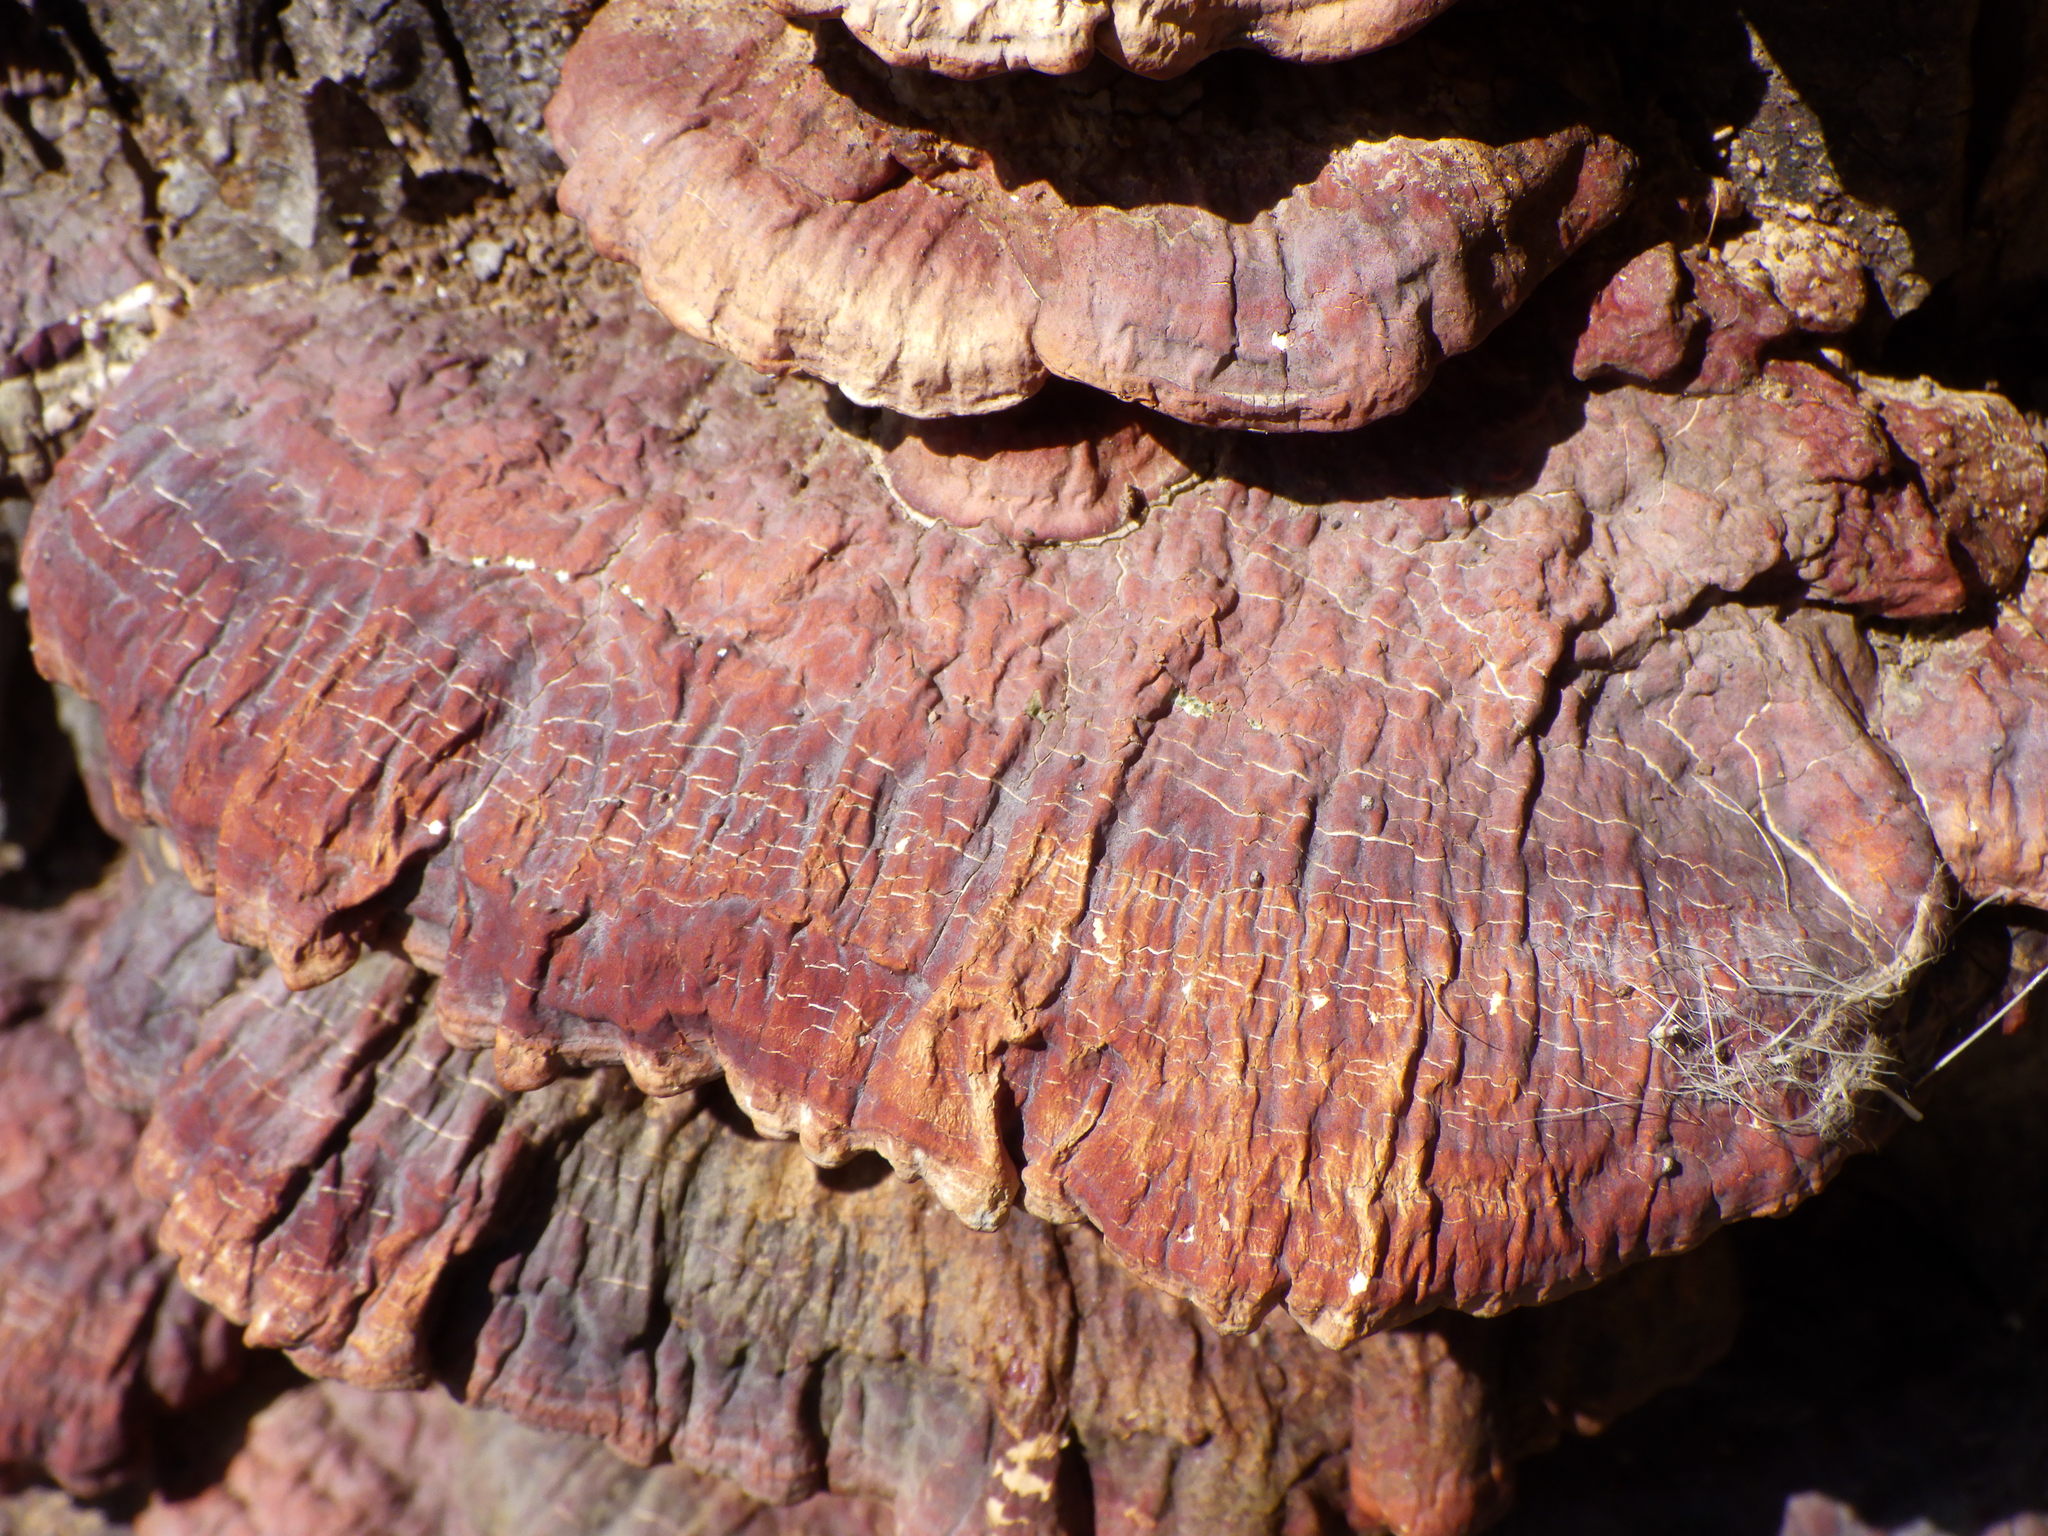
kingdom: Fungi
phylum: Basidiomycota
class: Agaricomycetes
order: Polyporales
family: Polyporaceae
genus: Ganoderma
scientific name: Ganoderma resinaceum
